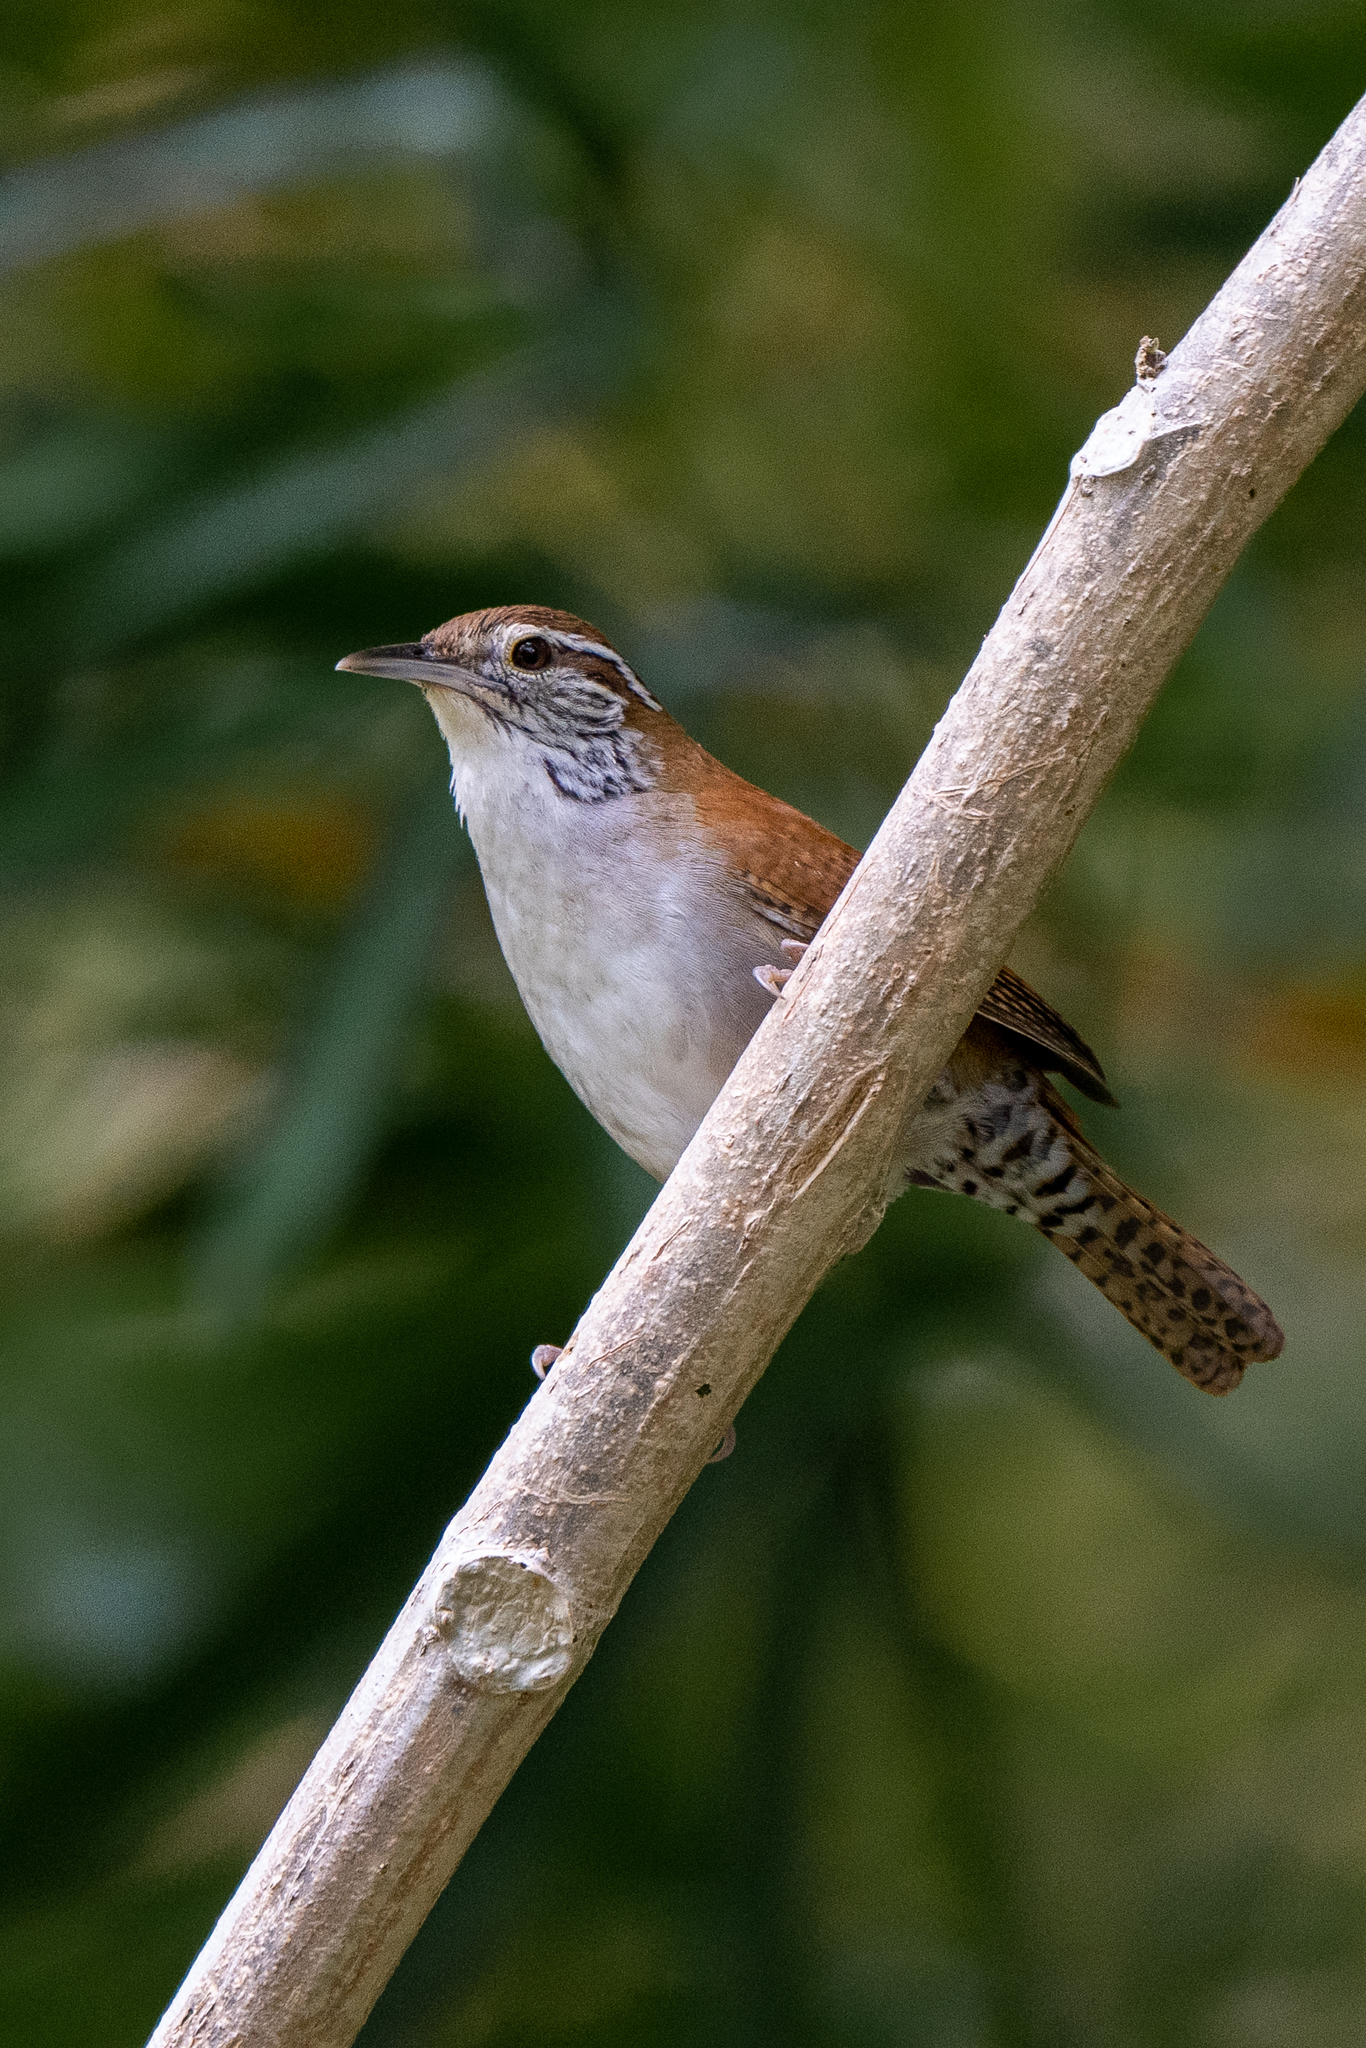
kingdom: Animalia
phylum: Chordata
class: Aves
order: Passeriformes
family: Troglodytidae
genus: Thryophilus
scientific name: Thryophilus rufalbus
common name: Rufous-and-white wren
